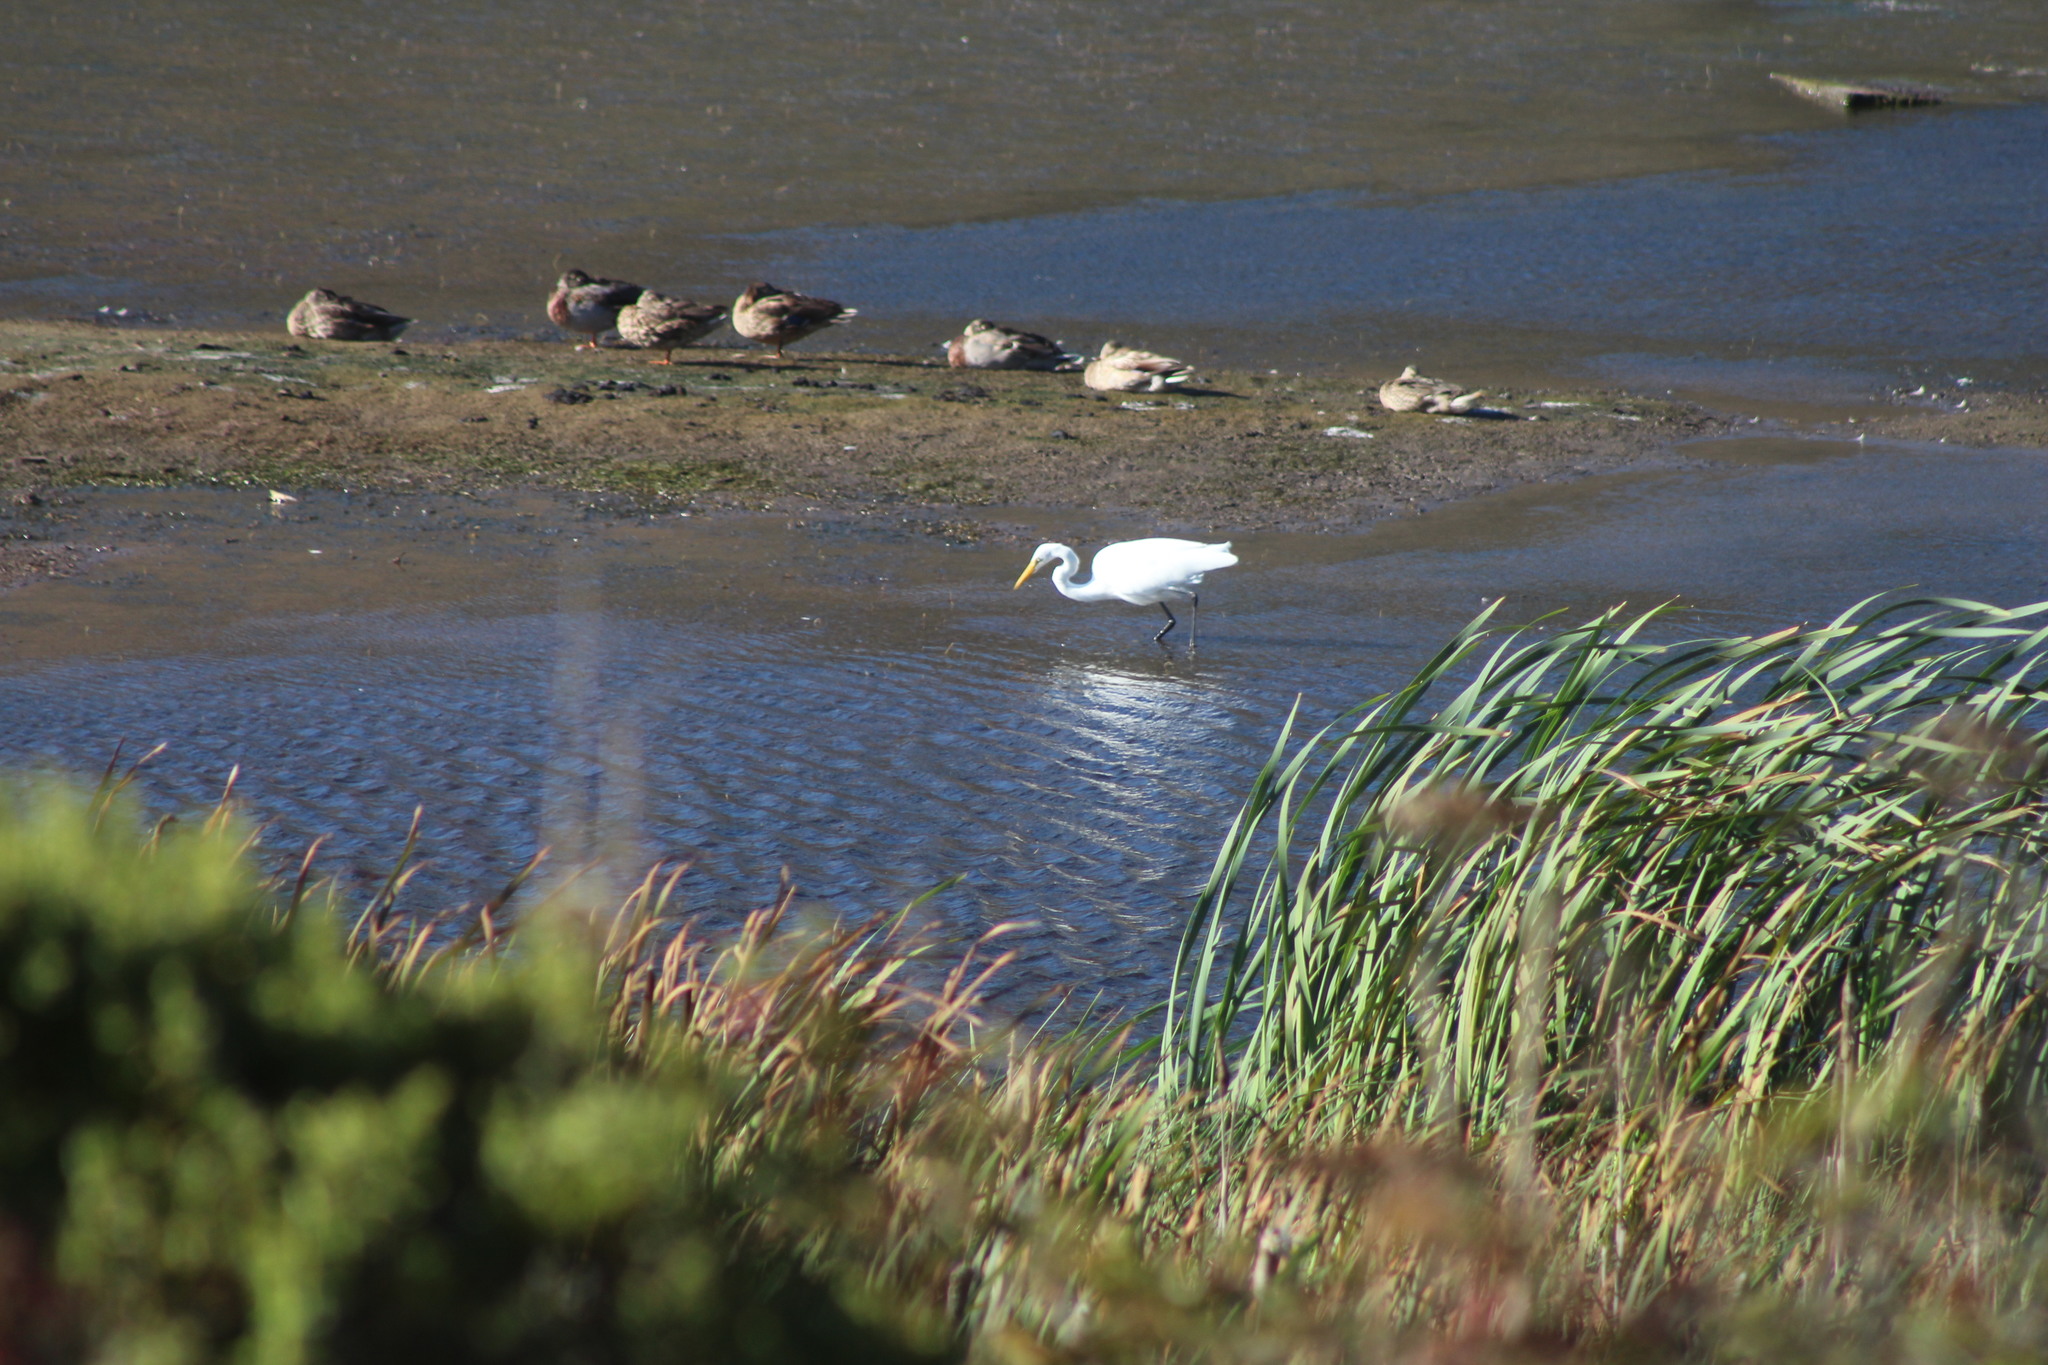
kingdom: Animalia
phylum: Chordata
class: Aves
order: Pelecaniformes
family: Ardeidae
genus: Ardea
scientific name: Ardea alba
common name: Great egret
